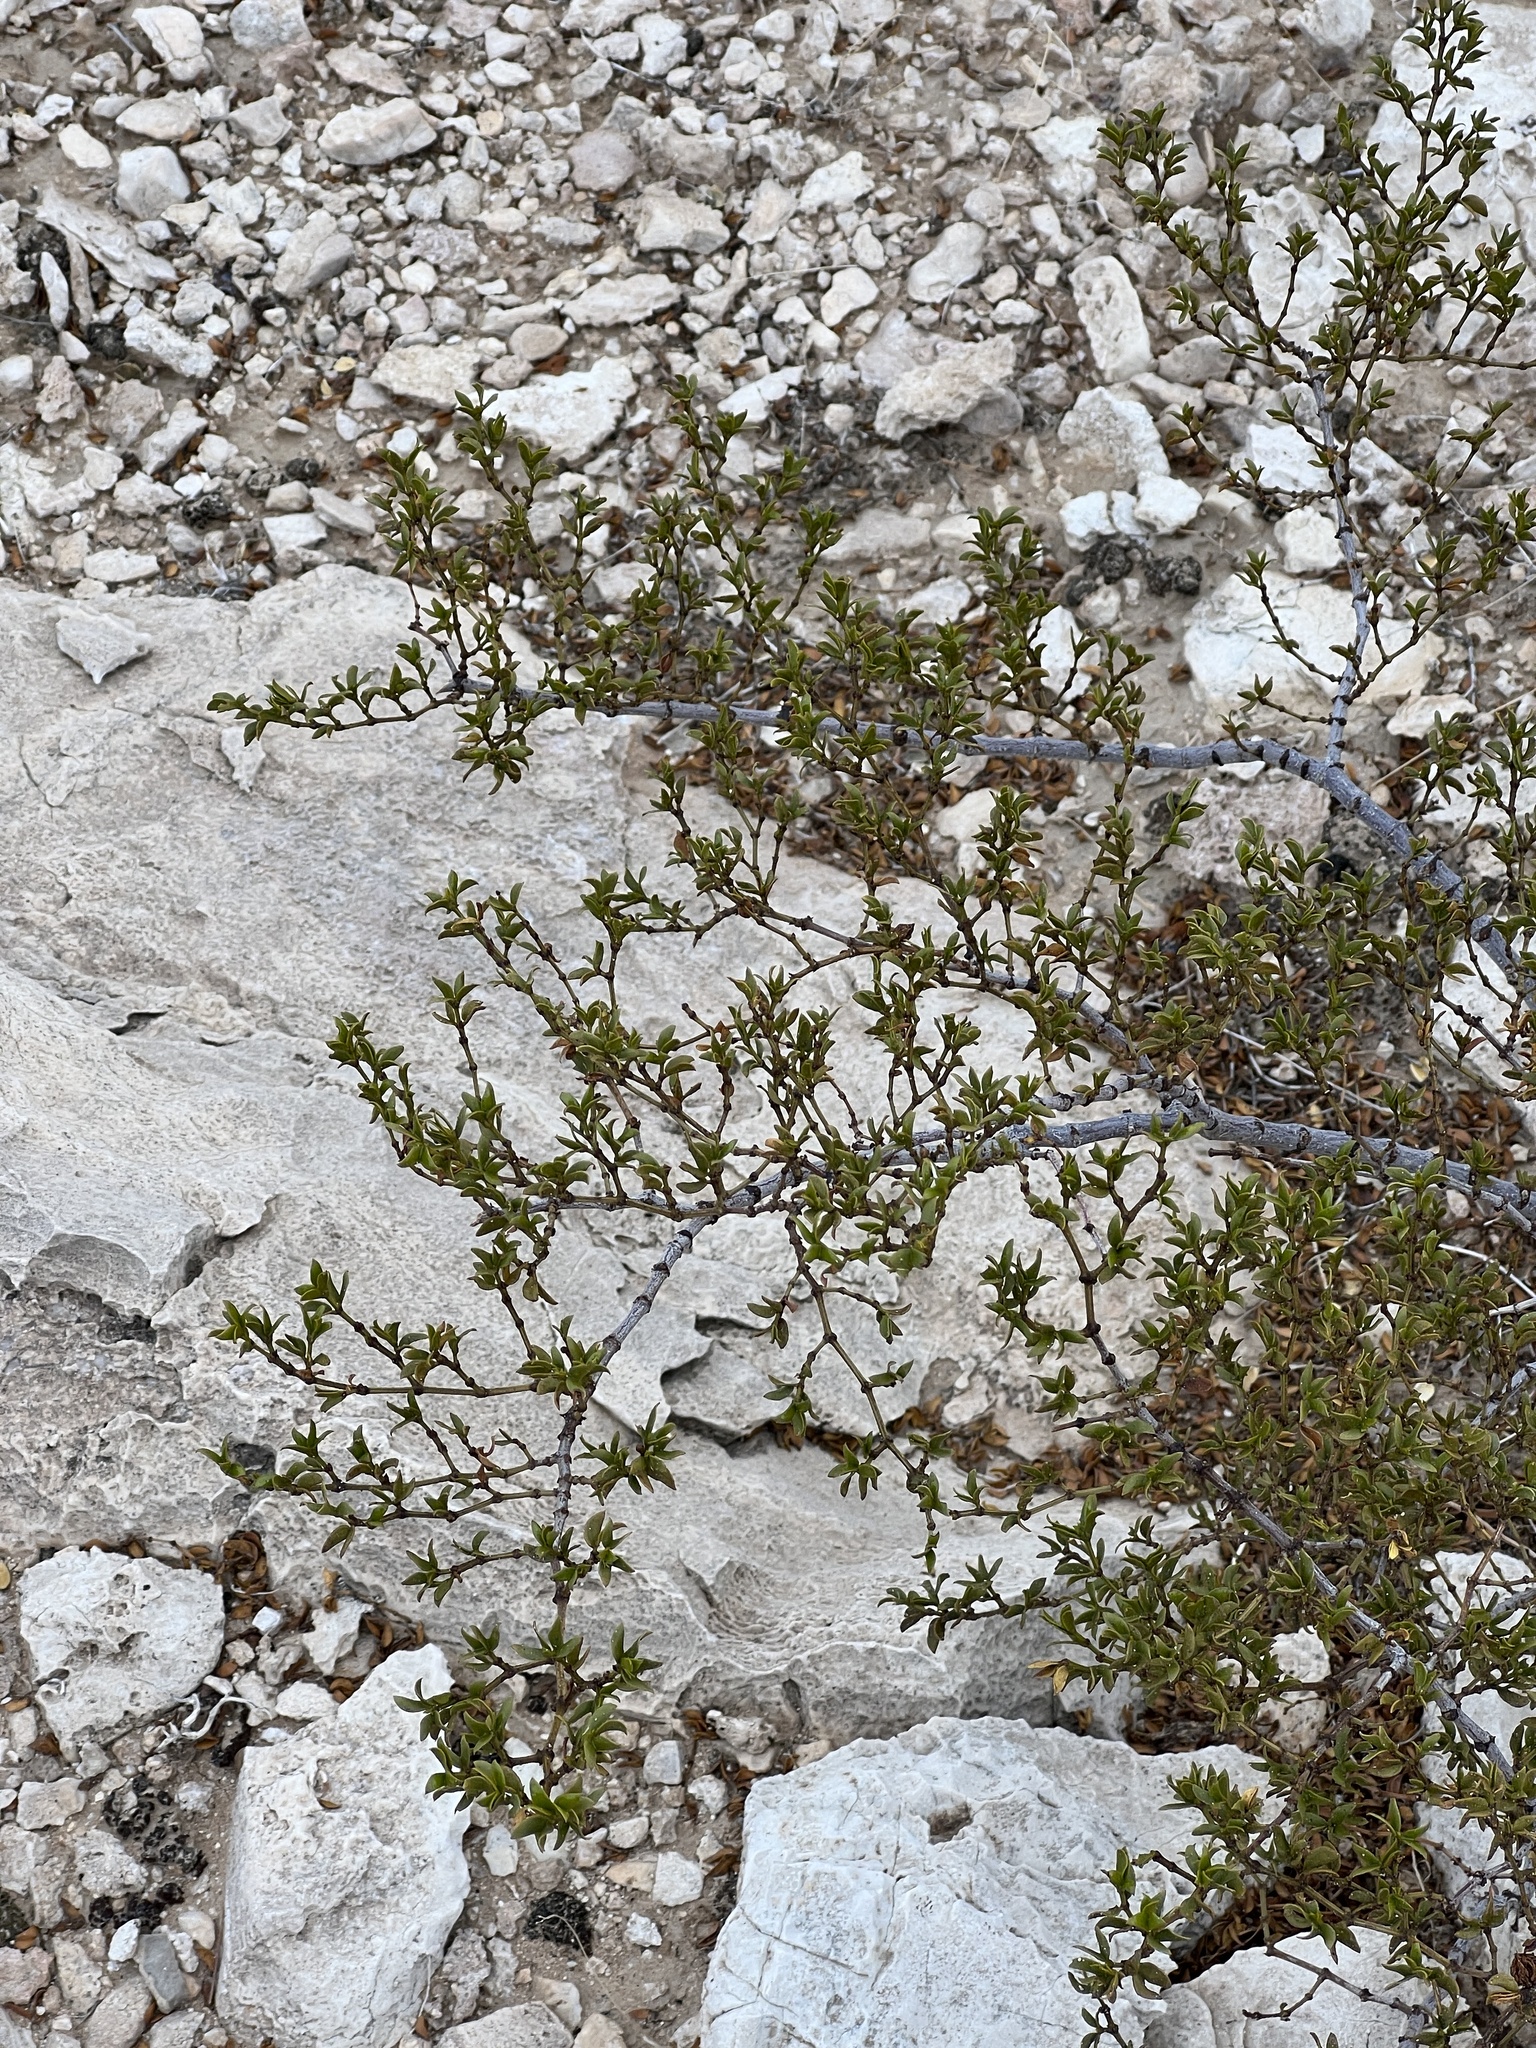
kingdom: Plantae
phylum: Tracheophyta
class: Magnoliopsida
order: Zygophyllales
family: Zygophyllaceae
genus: Larrea
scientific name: Larrea tridentata
